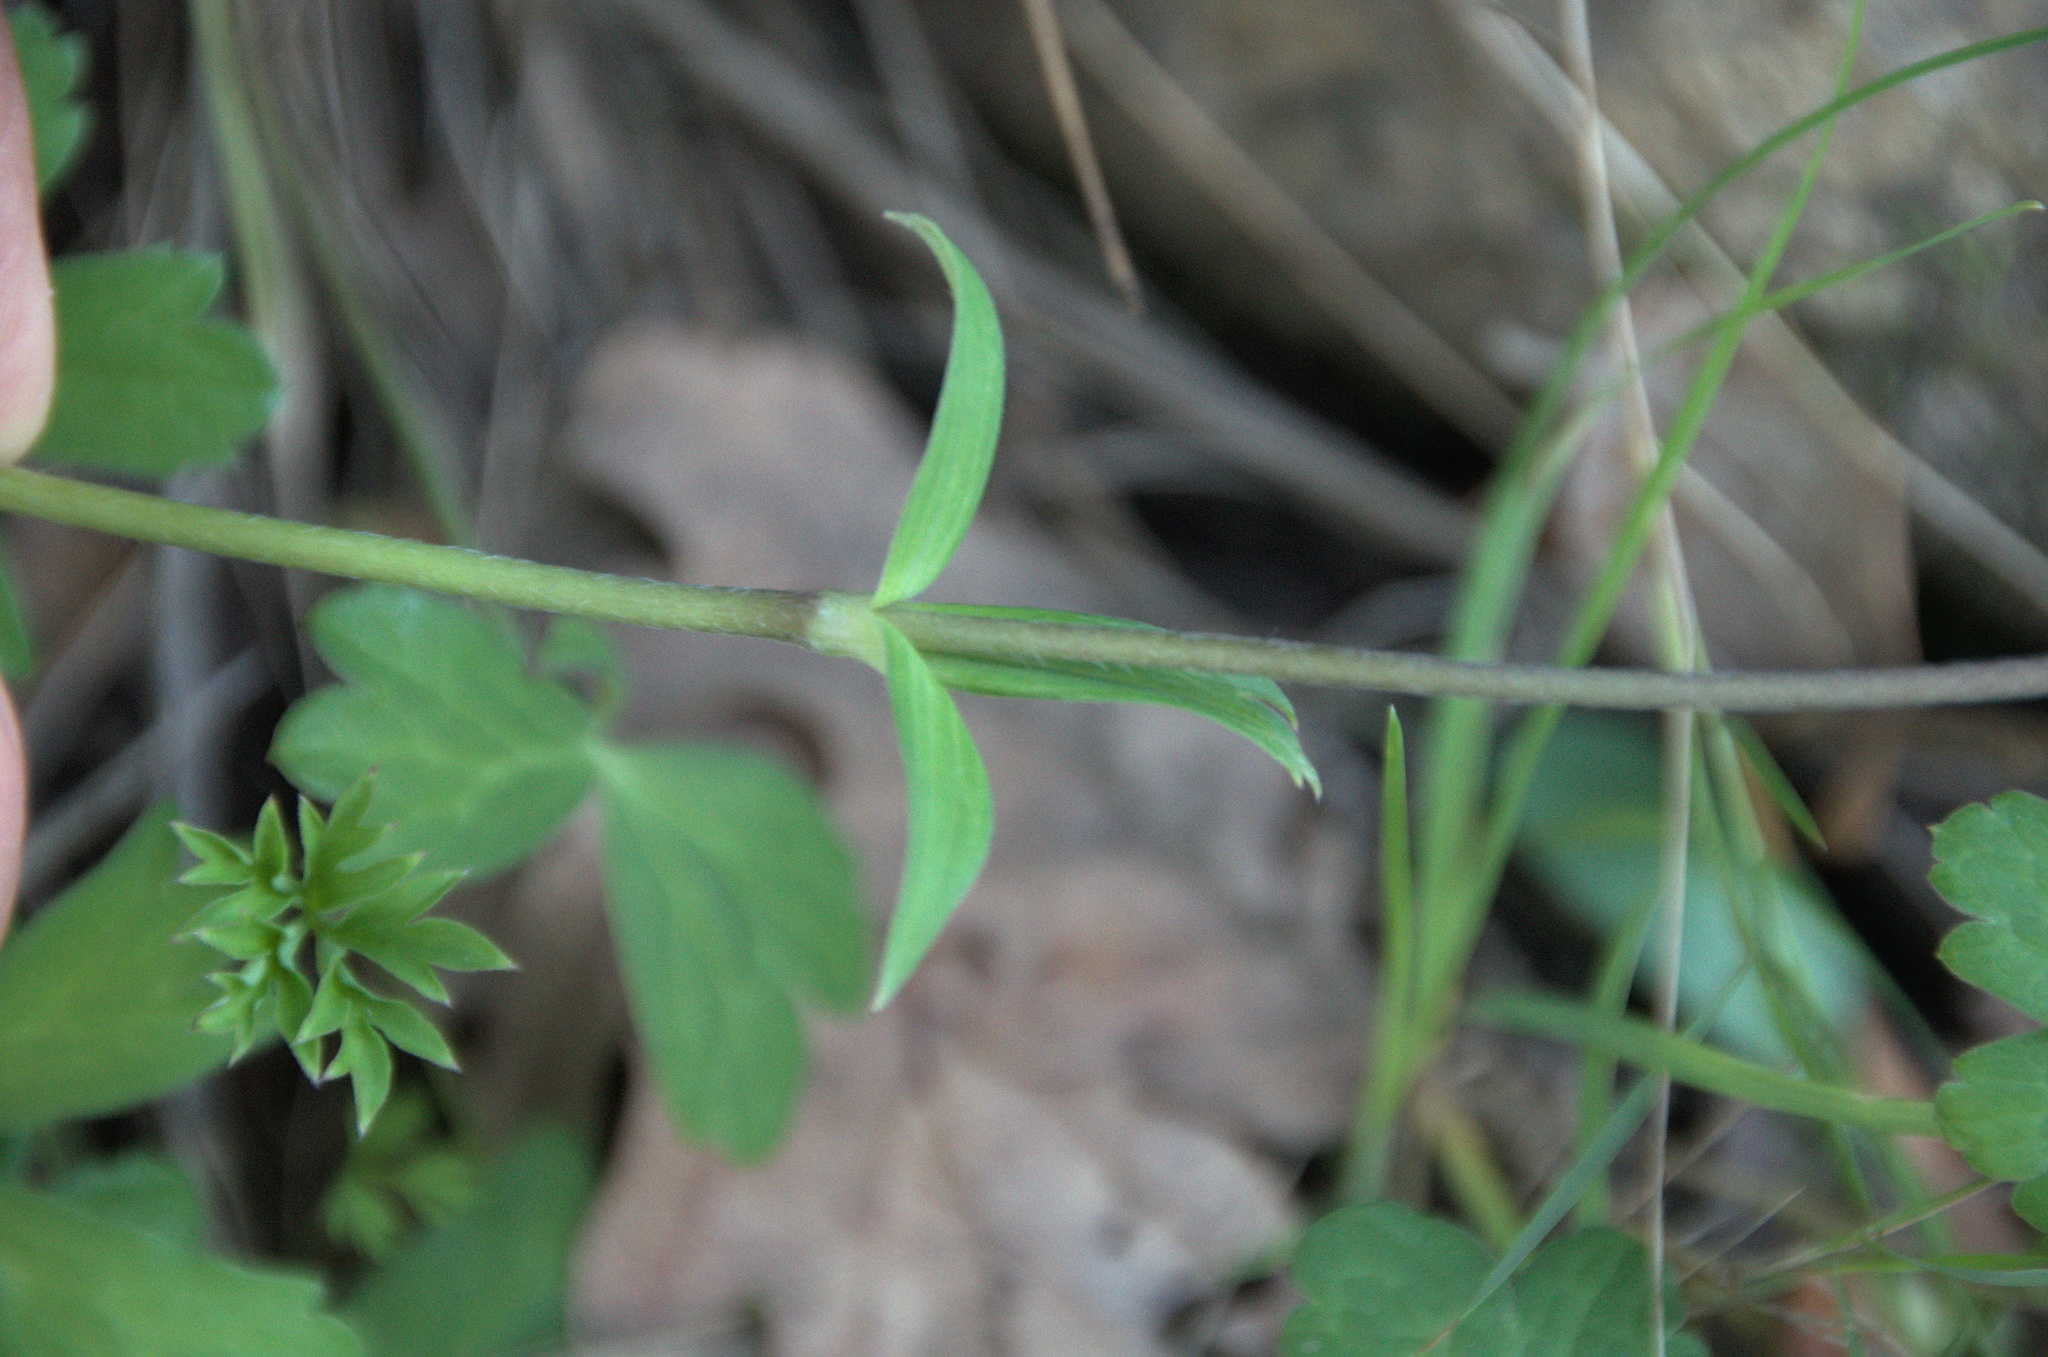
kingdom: Plantae
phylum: Tracheophyta
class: Magnoliopsida
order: Ranunculales
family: Ranunculaceae
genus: Anemone
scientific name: Anemone hortensis
